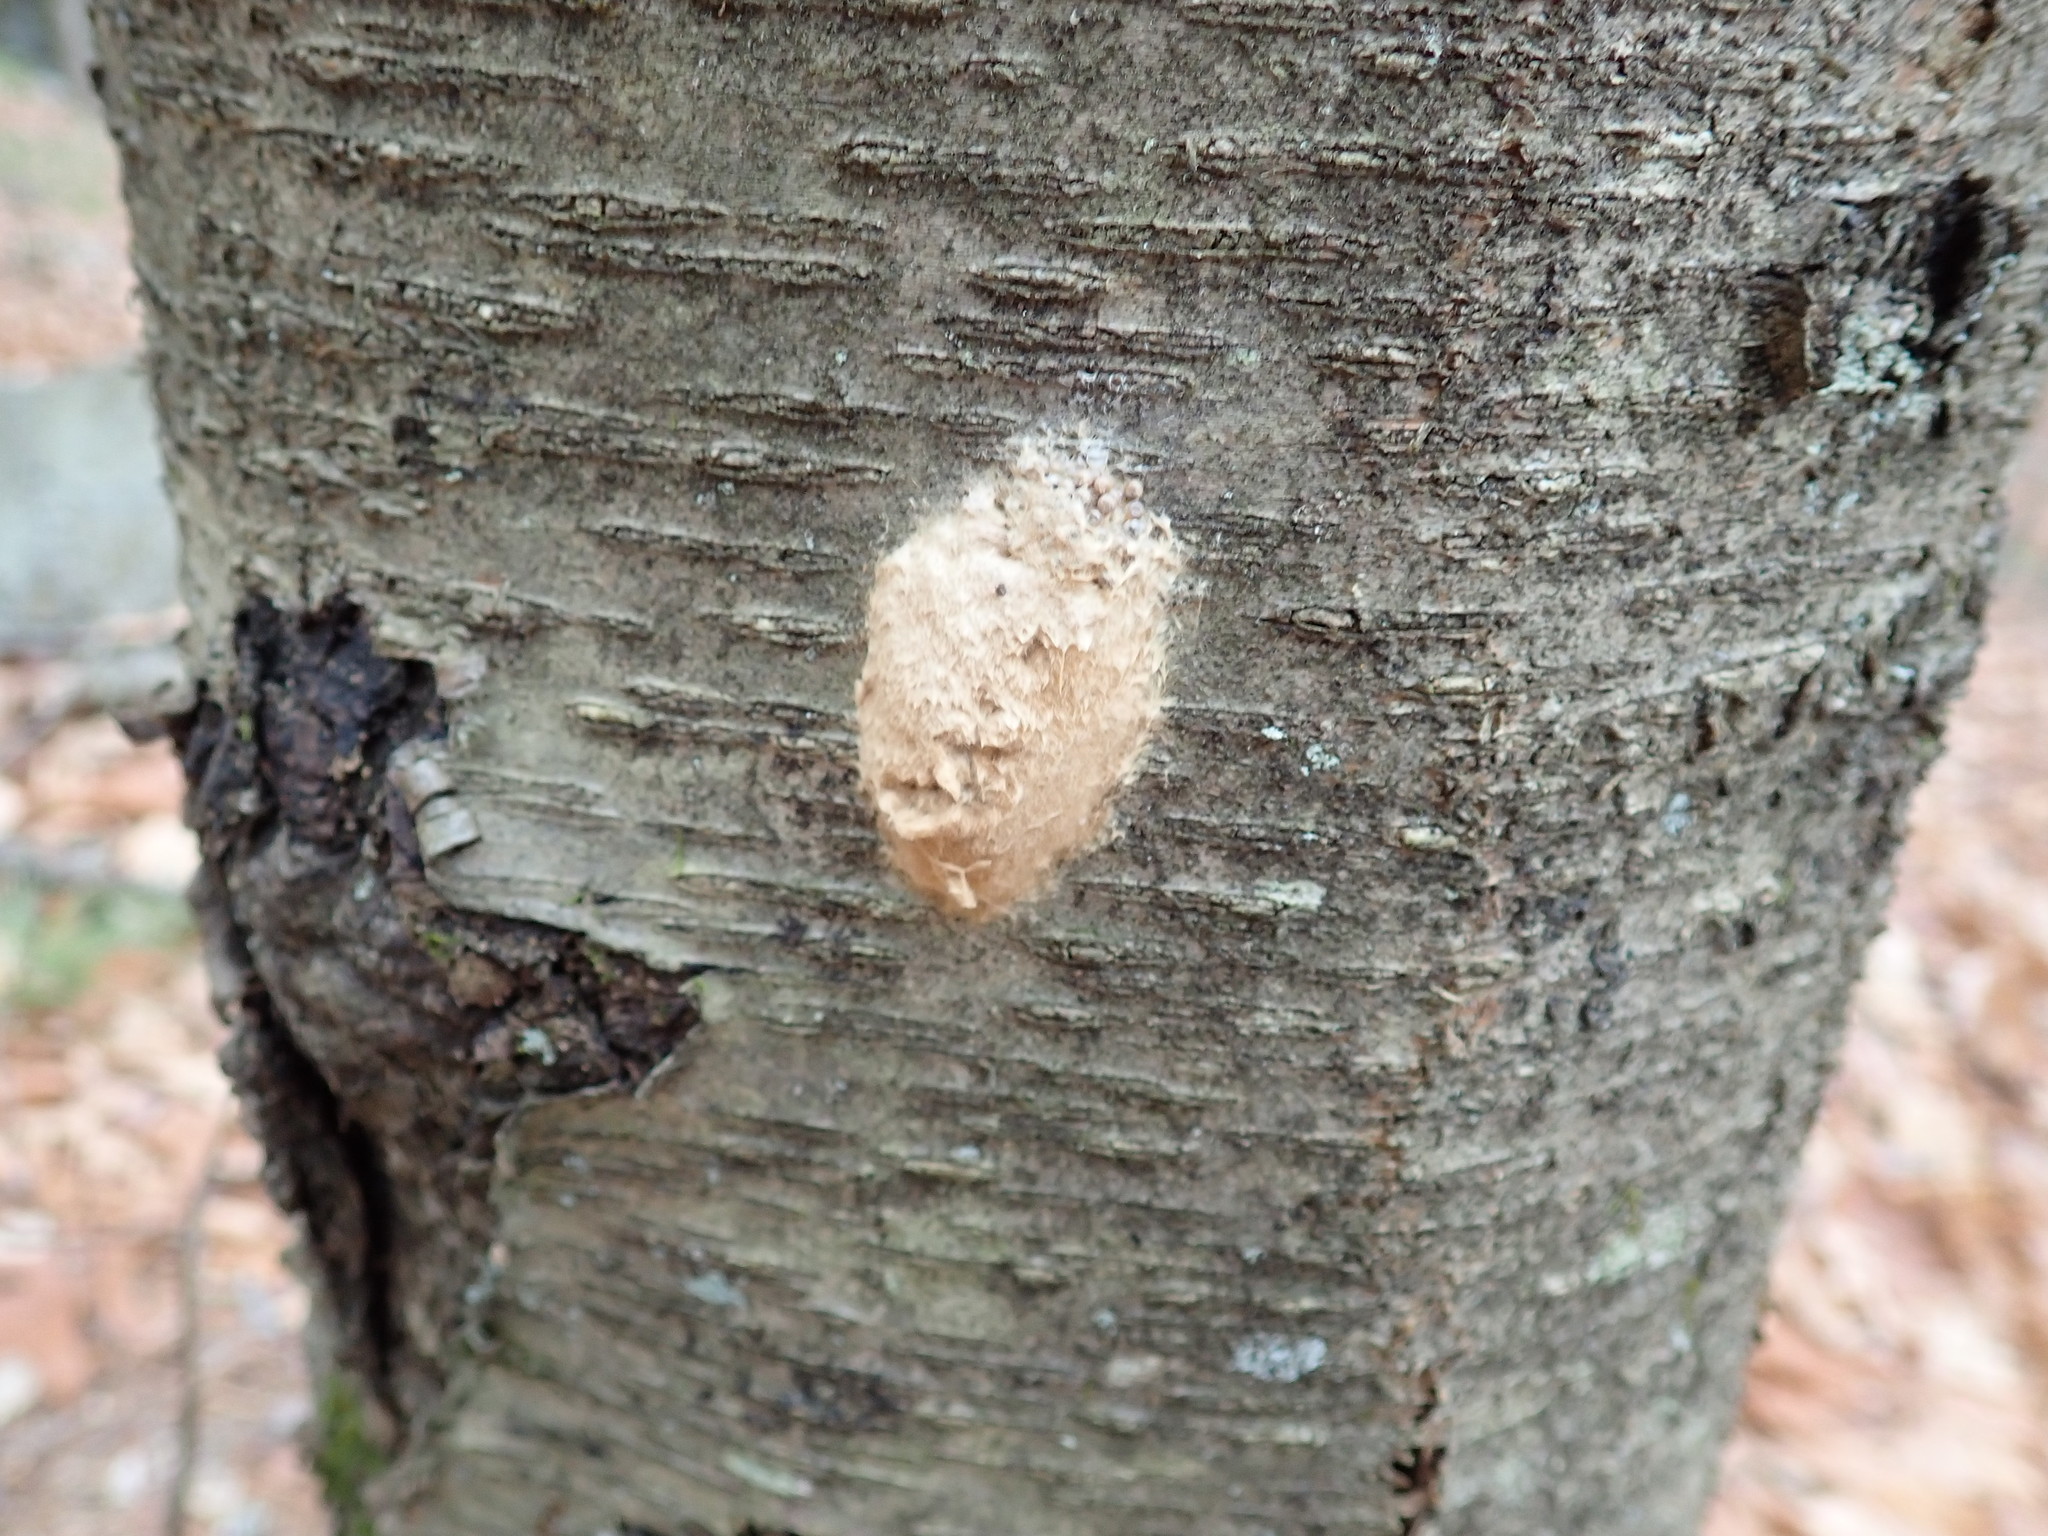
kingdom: Animalia
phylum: Arthropoda
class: Insecta
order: Lepidoptera
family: Erebidae
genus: Lymantria
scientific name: Lymantria dispar
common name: Gypsy moth
